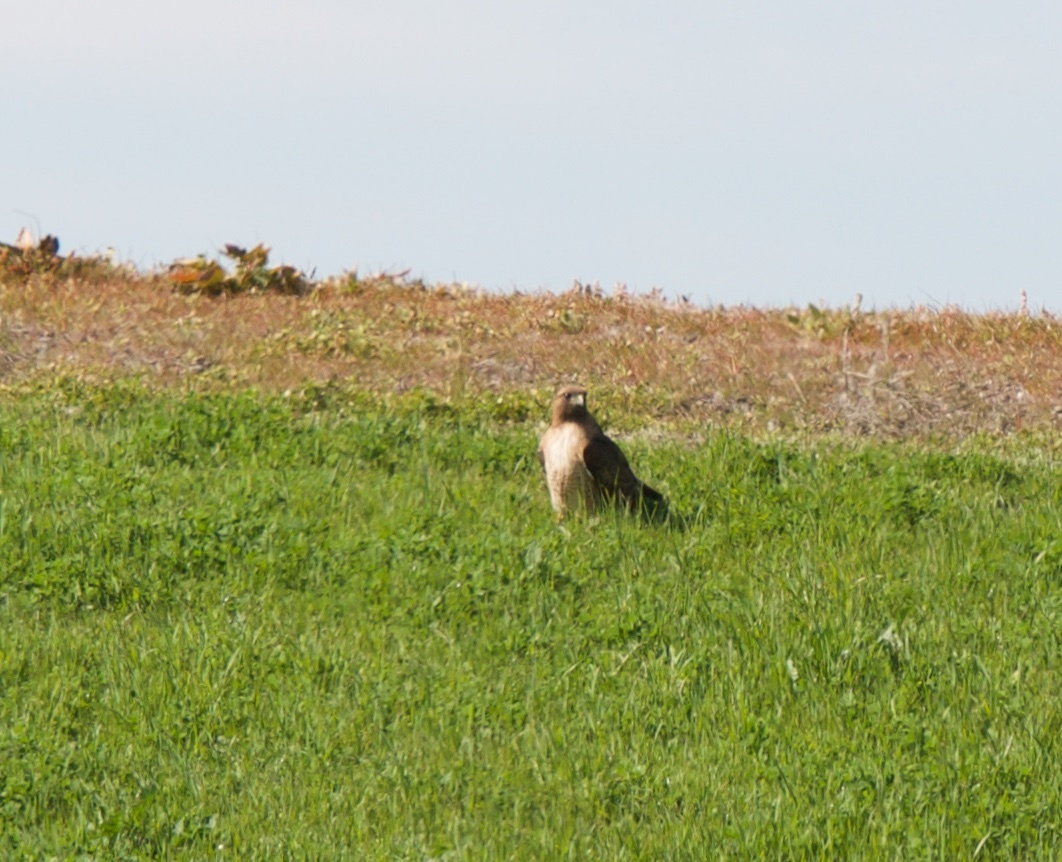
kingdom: Animalia
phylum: Chordata
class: Aves
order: Accipitriformes
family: Accipitridae
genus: Buteo
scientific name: Buteo jamaicensis
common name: Red-tailed hawk
